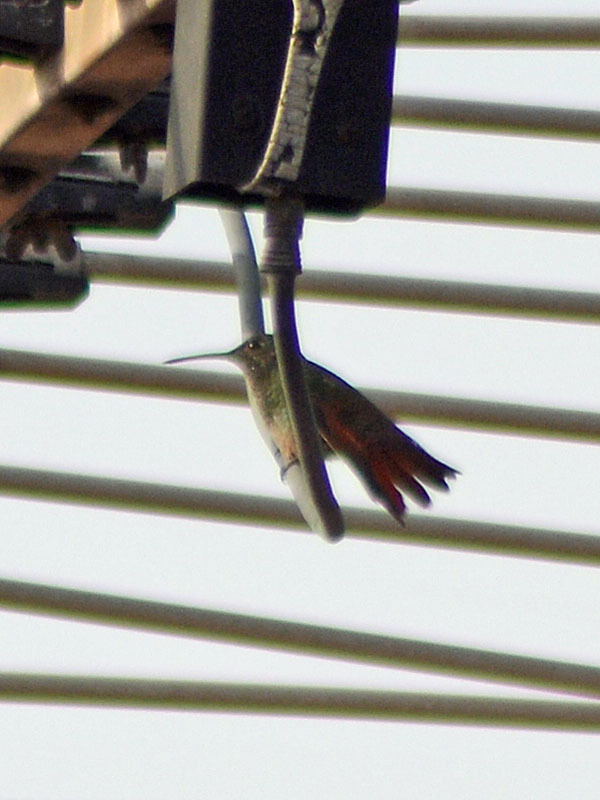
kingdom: Animalia
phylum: Chordata
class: Aves
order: Apodiformes
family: Trochilidae
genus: Saucerottia
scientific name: Saucerottia beryllina
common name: Berylline hummingbird
